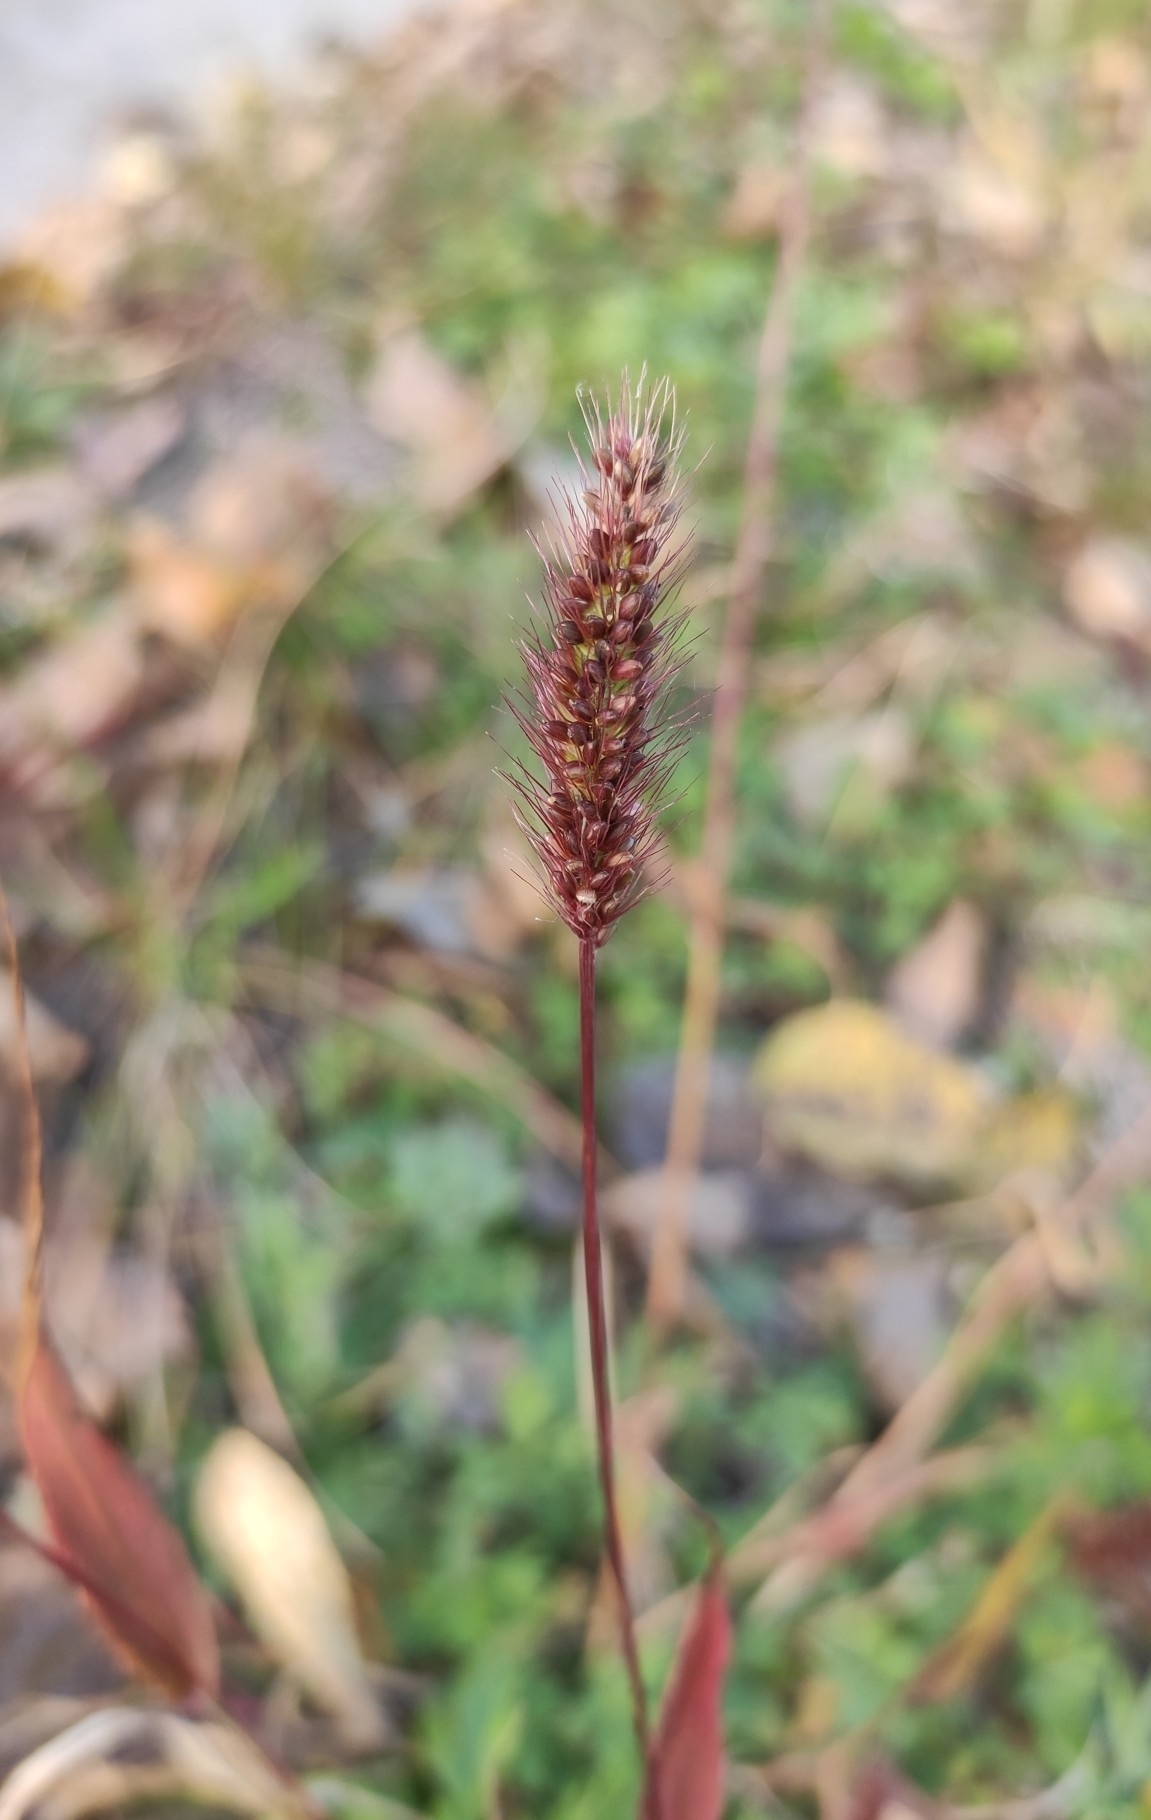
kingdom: Plantae
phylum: Tracheophyta
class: Liliopsida
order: Poales
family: Poaceae
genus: Setaria
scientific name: Setaria viridis
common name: Green bristlegrass
